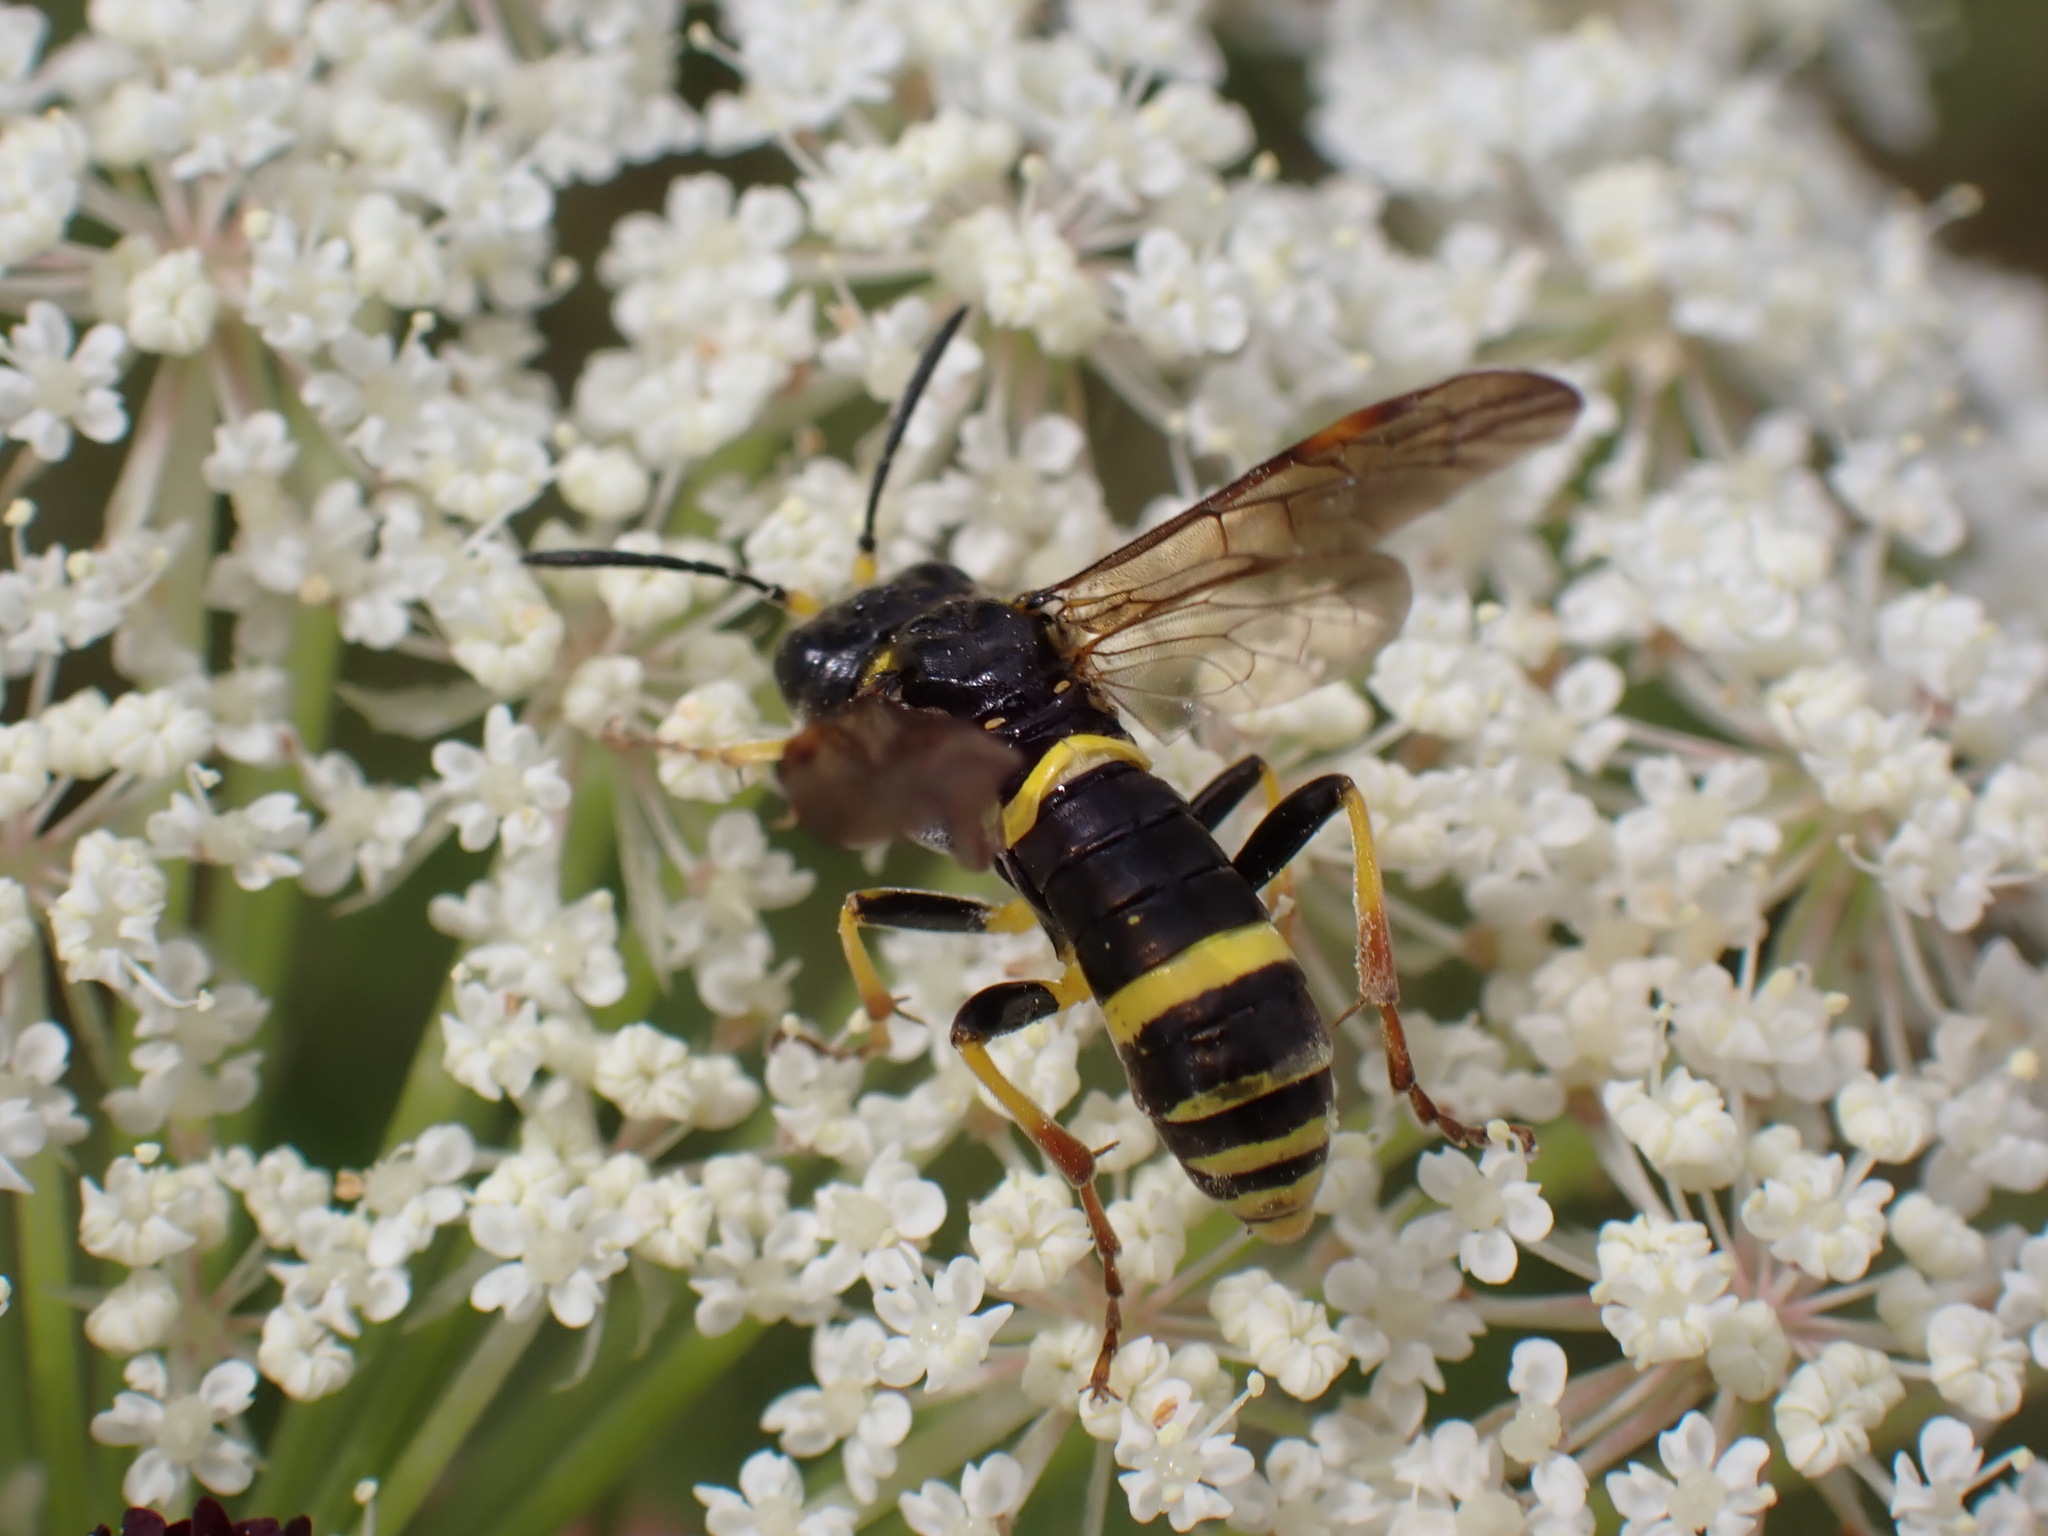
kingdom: Animalia
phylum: Arthropoda
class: Insecta
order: Hymenoptera
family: Tenthredinidae
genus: Tenthredo
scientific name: Tenthredo amoena
